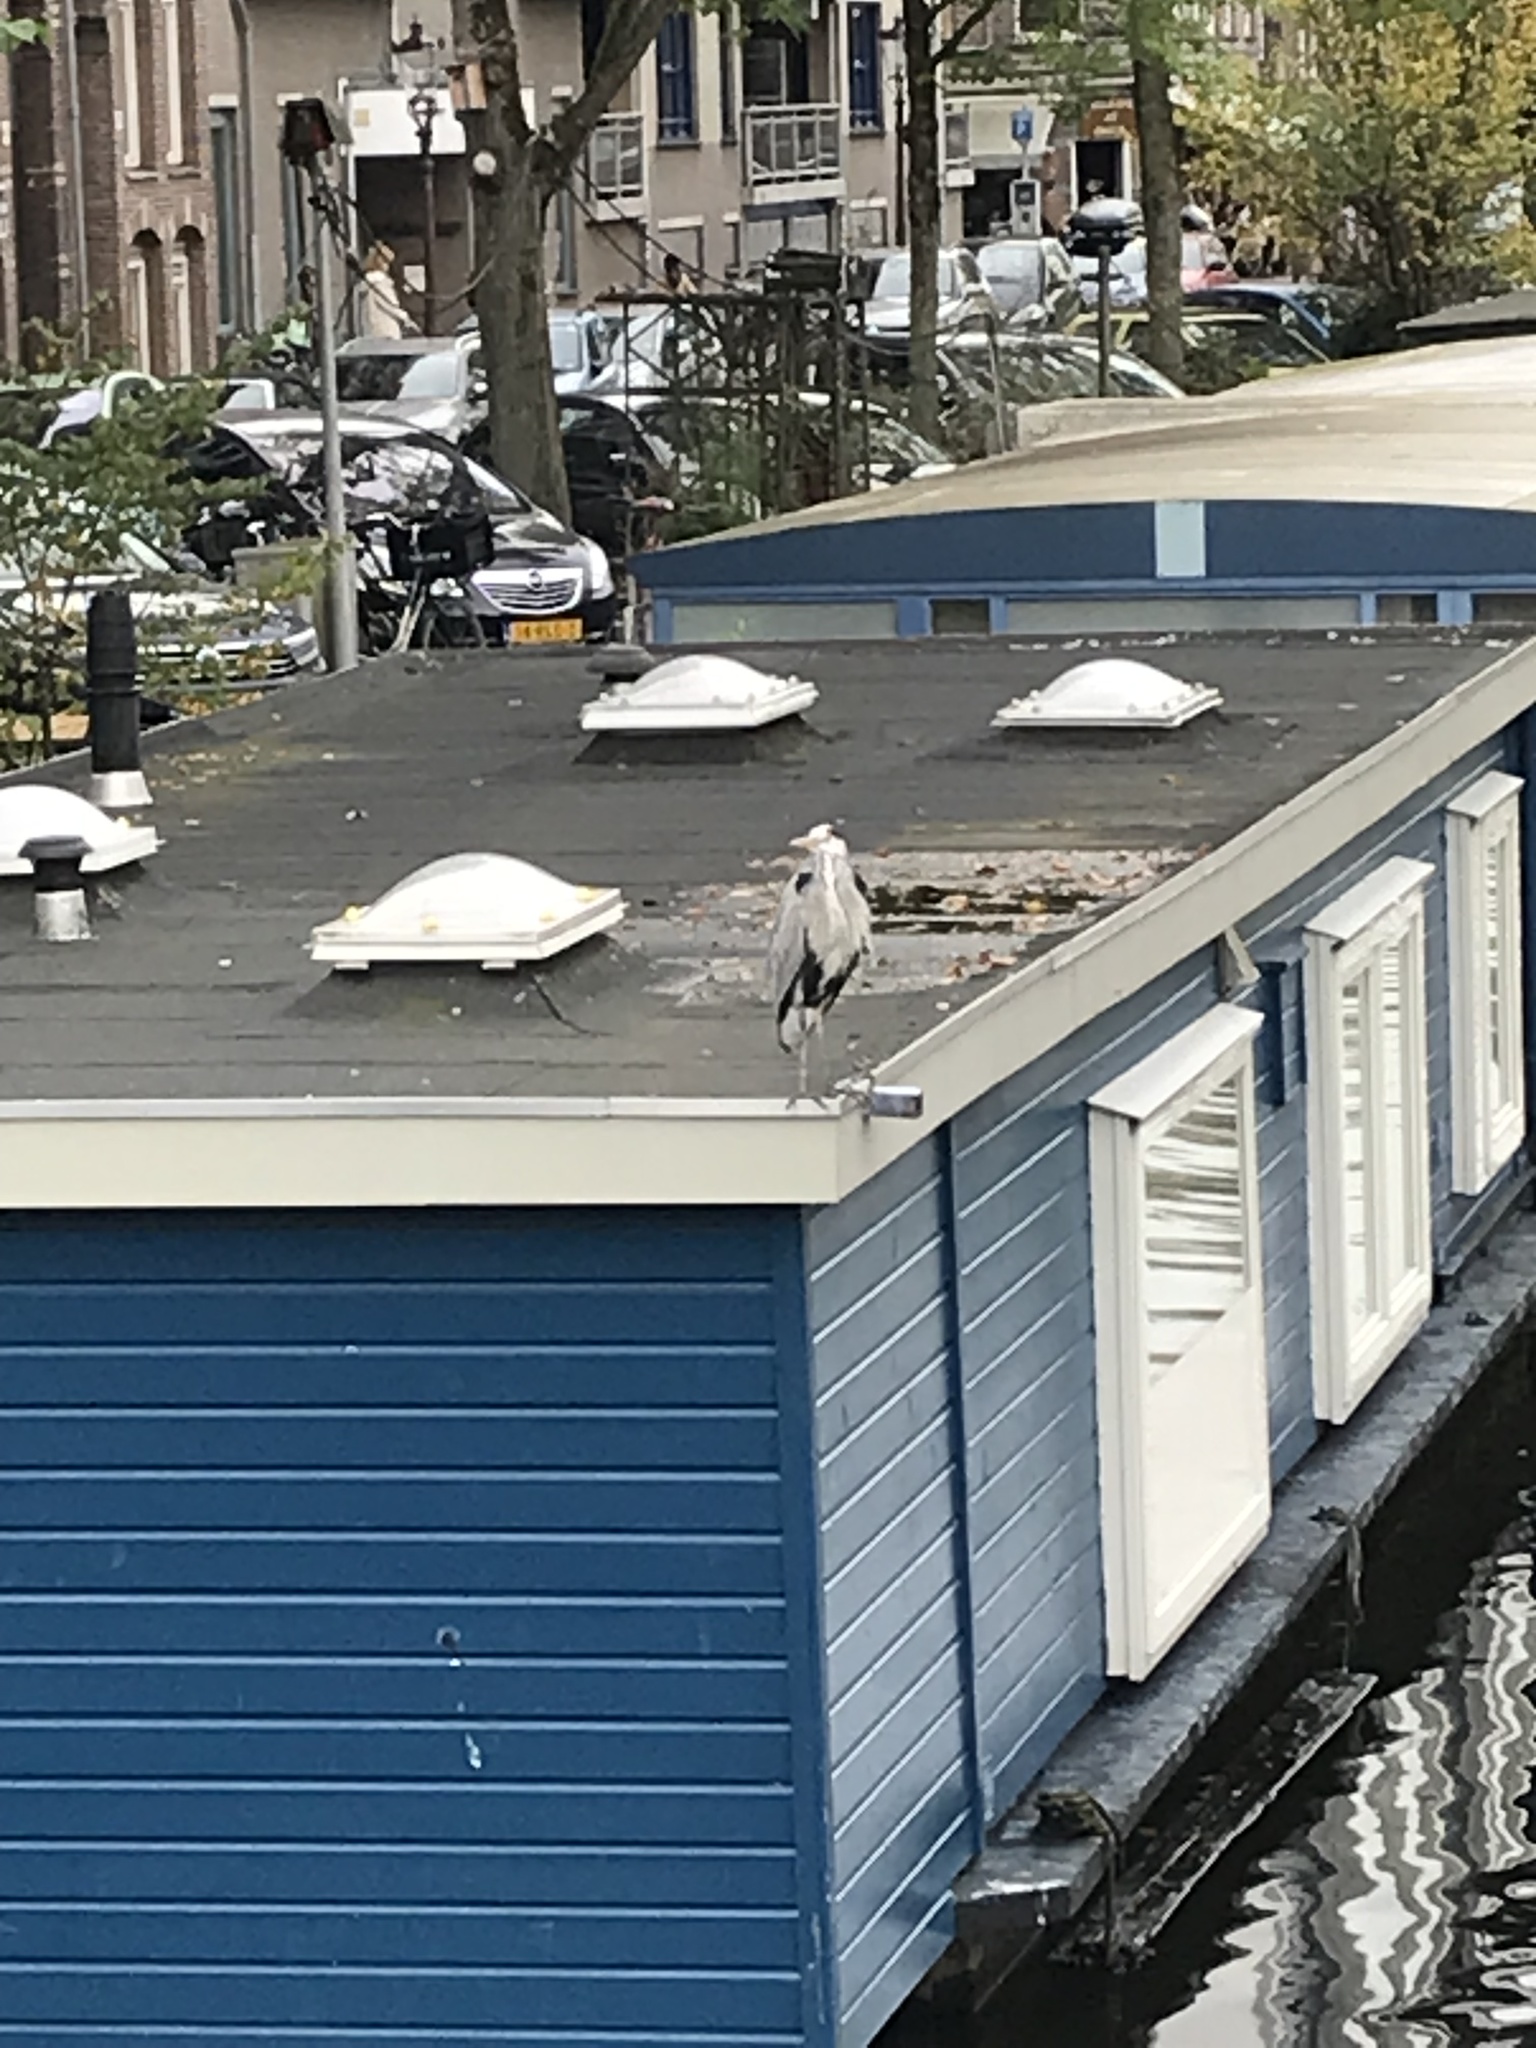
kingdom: Animalia
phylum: Chordata
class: Aves
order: Pelecaniformes
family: Ardeidae
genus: Ardea
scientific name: Ardea cinerea
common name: Grey heron
